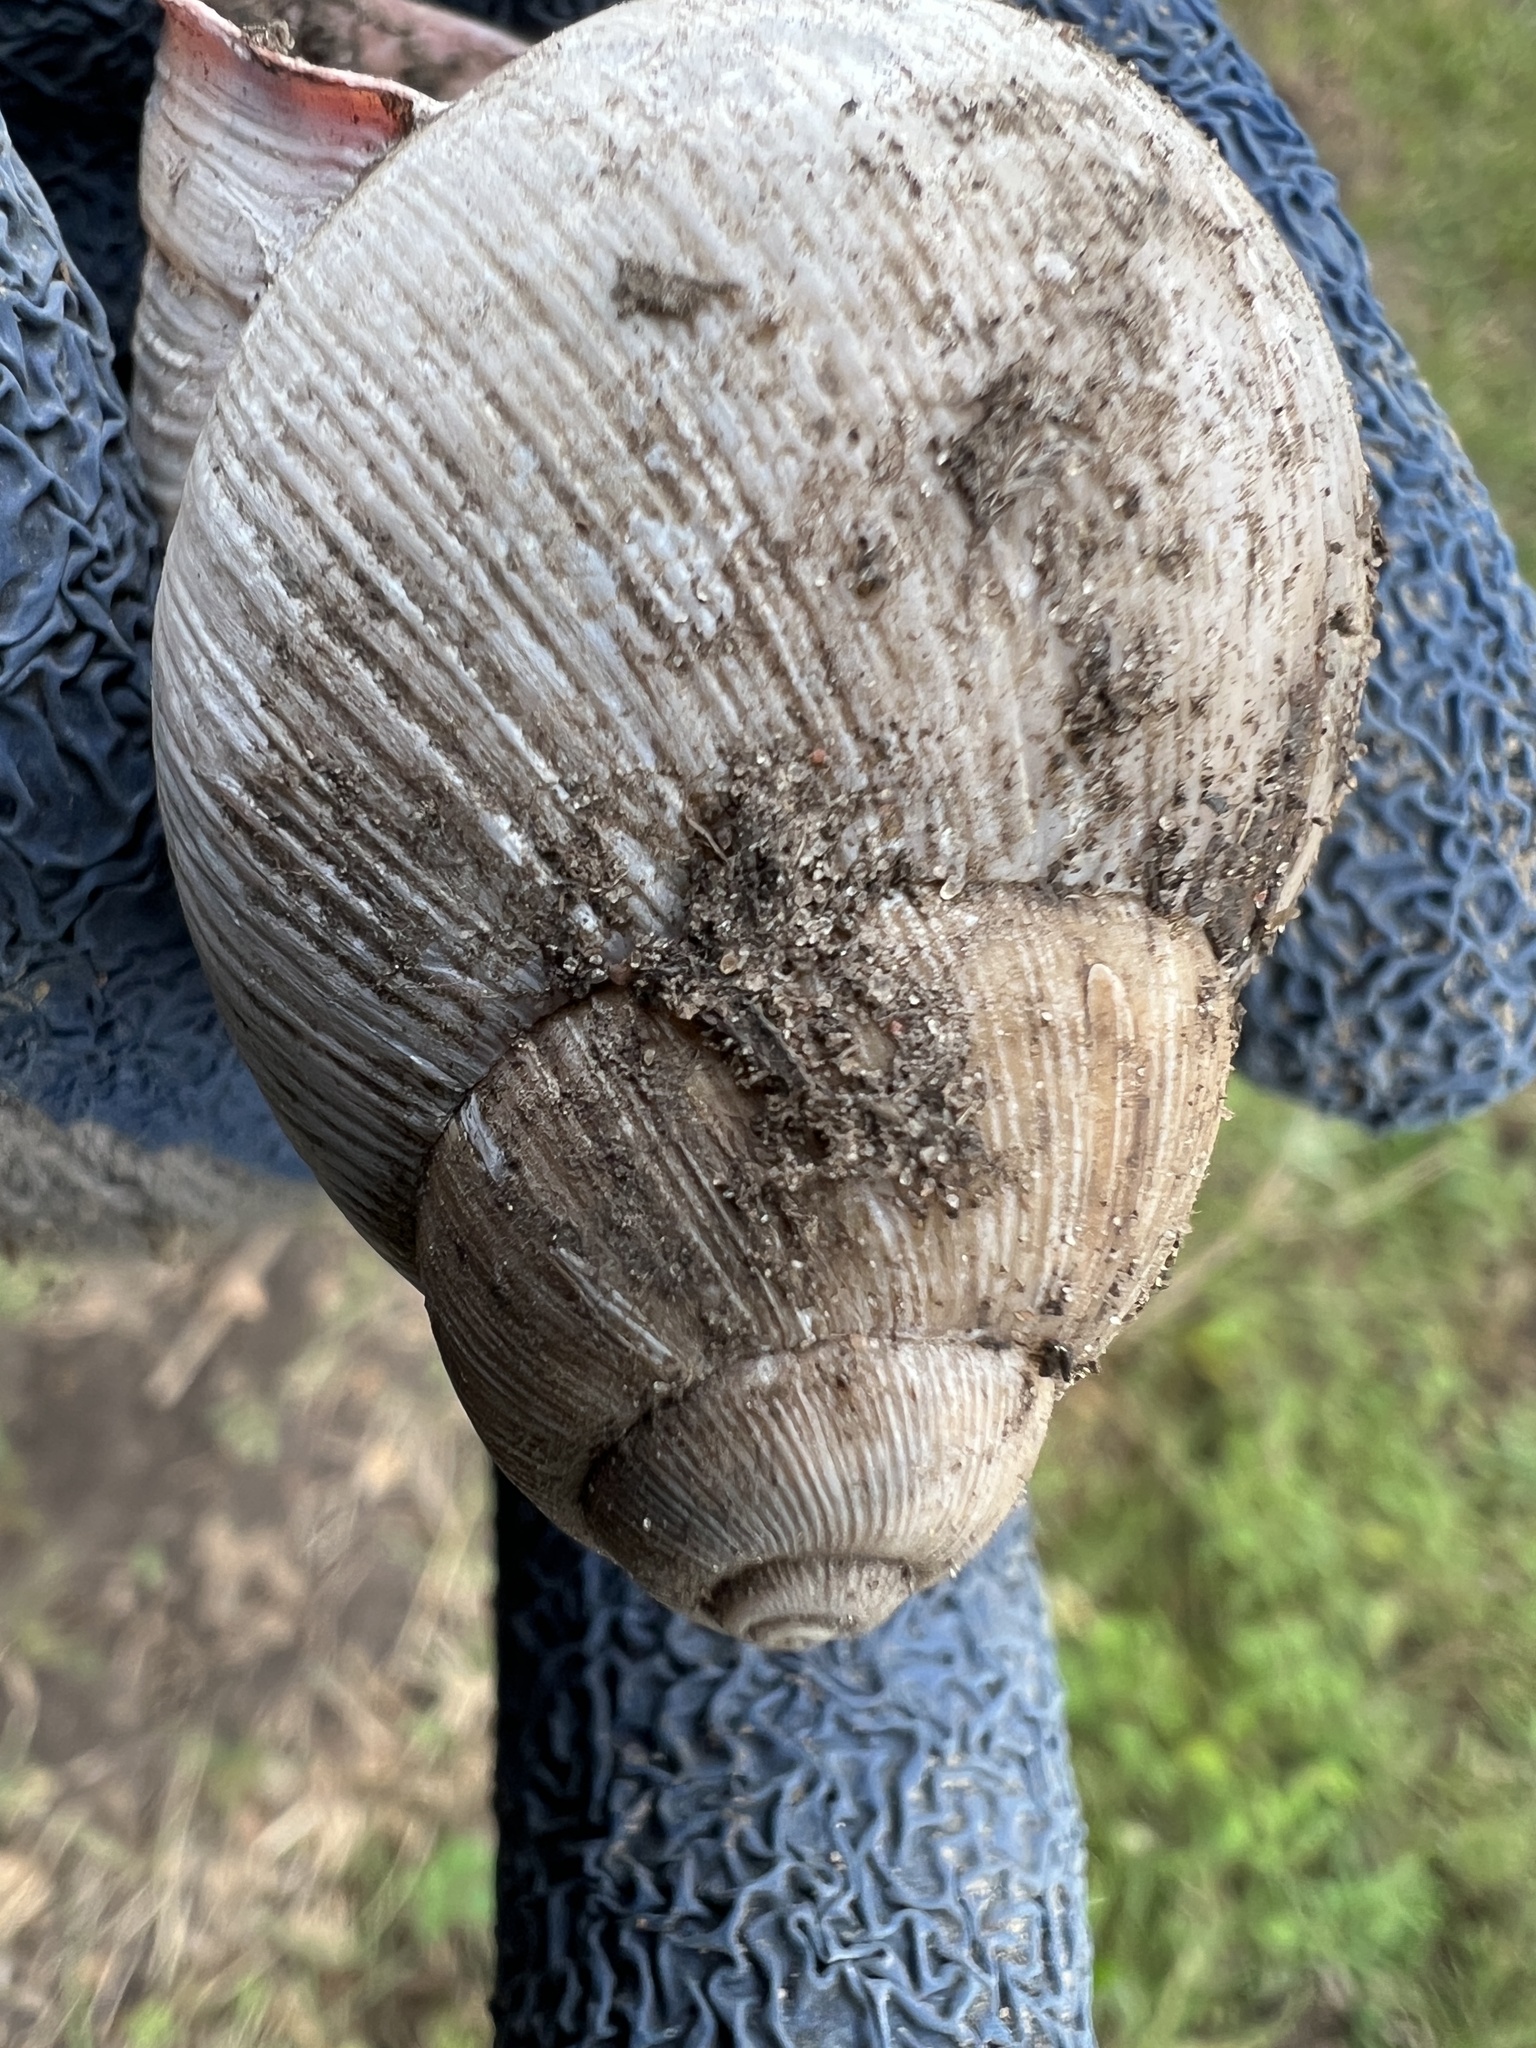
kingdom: Animalia
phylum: Mollusca
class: Gastropoda
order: Stylommatophora
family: Strophocheilidae
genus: Megalobulimus
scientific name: Megalobulimus oblongus
